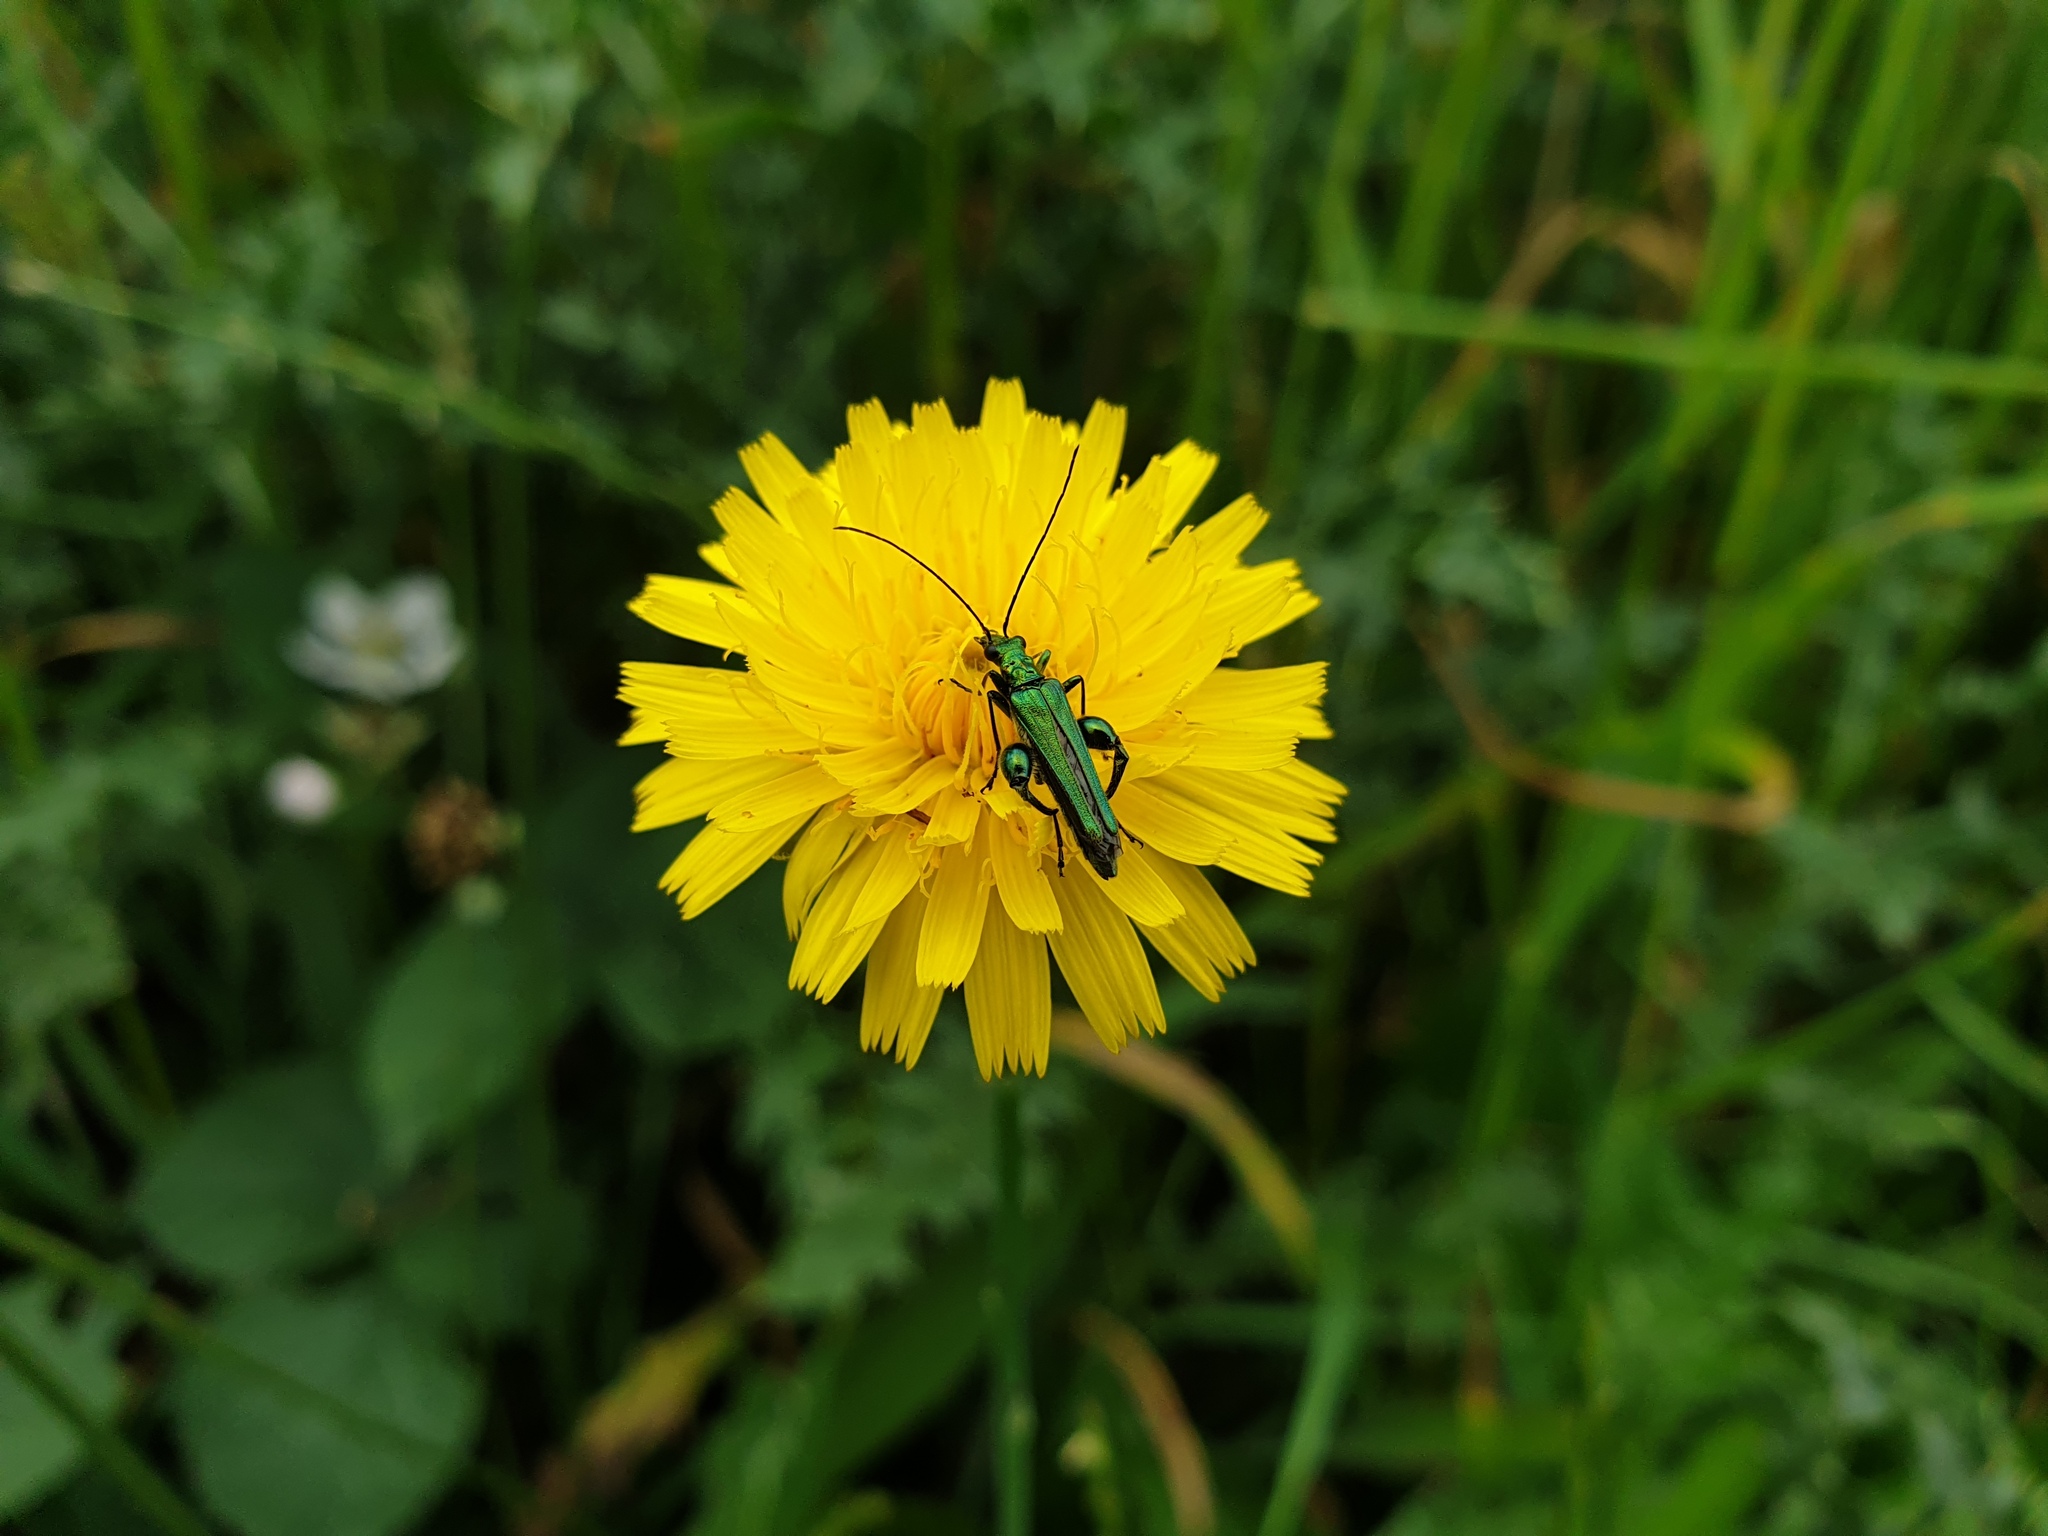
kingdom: Animalia
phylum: Arthropoda
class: Insecta
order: Coleoptera
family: Oedemeridae
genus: Oedemera
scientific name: Oedemera nobilis
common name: Swollen-thighed beetle
